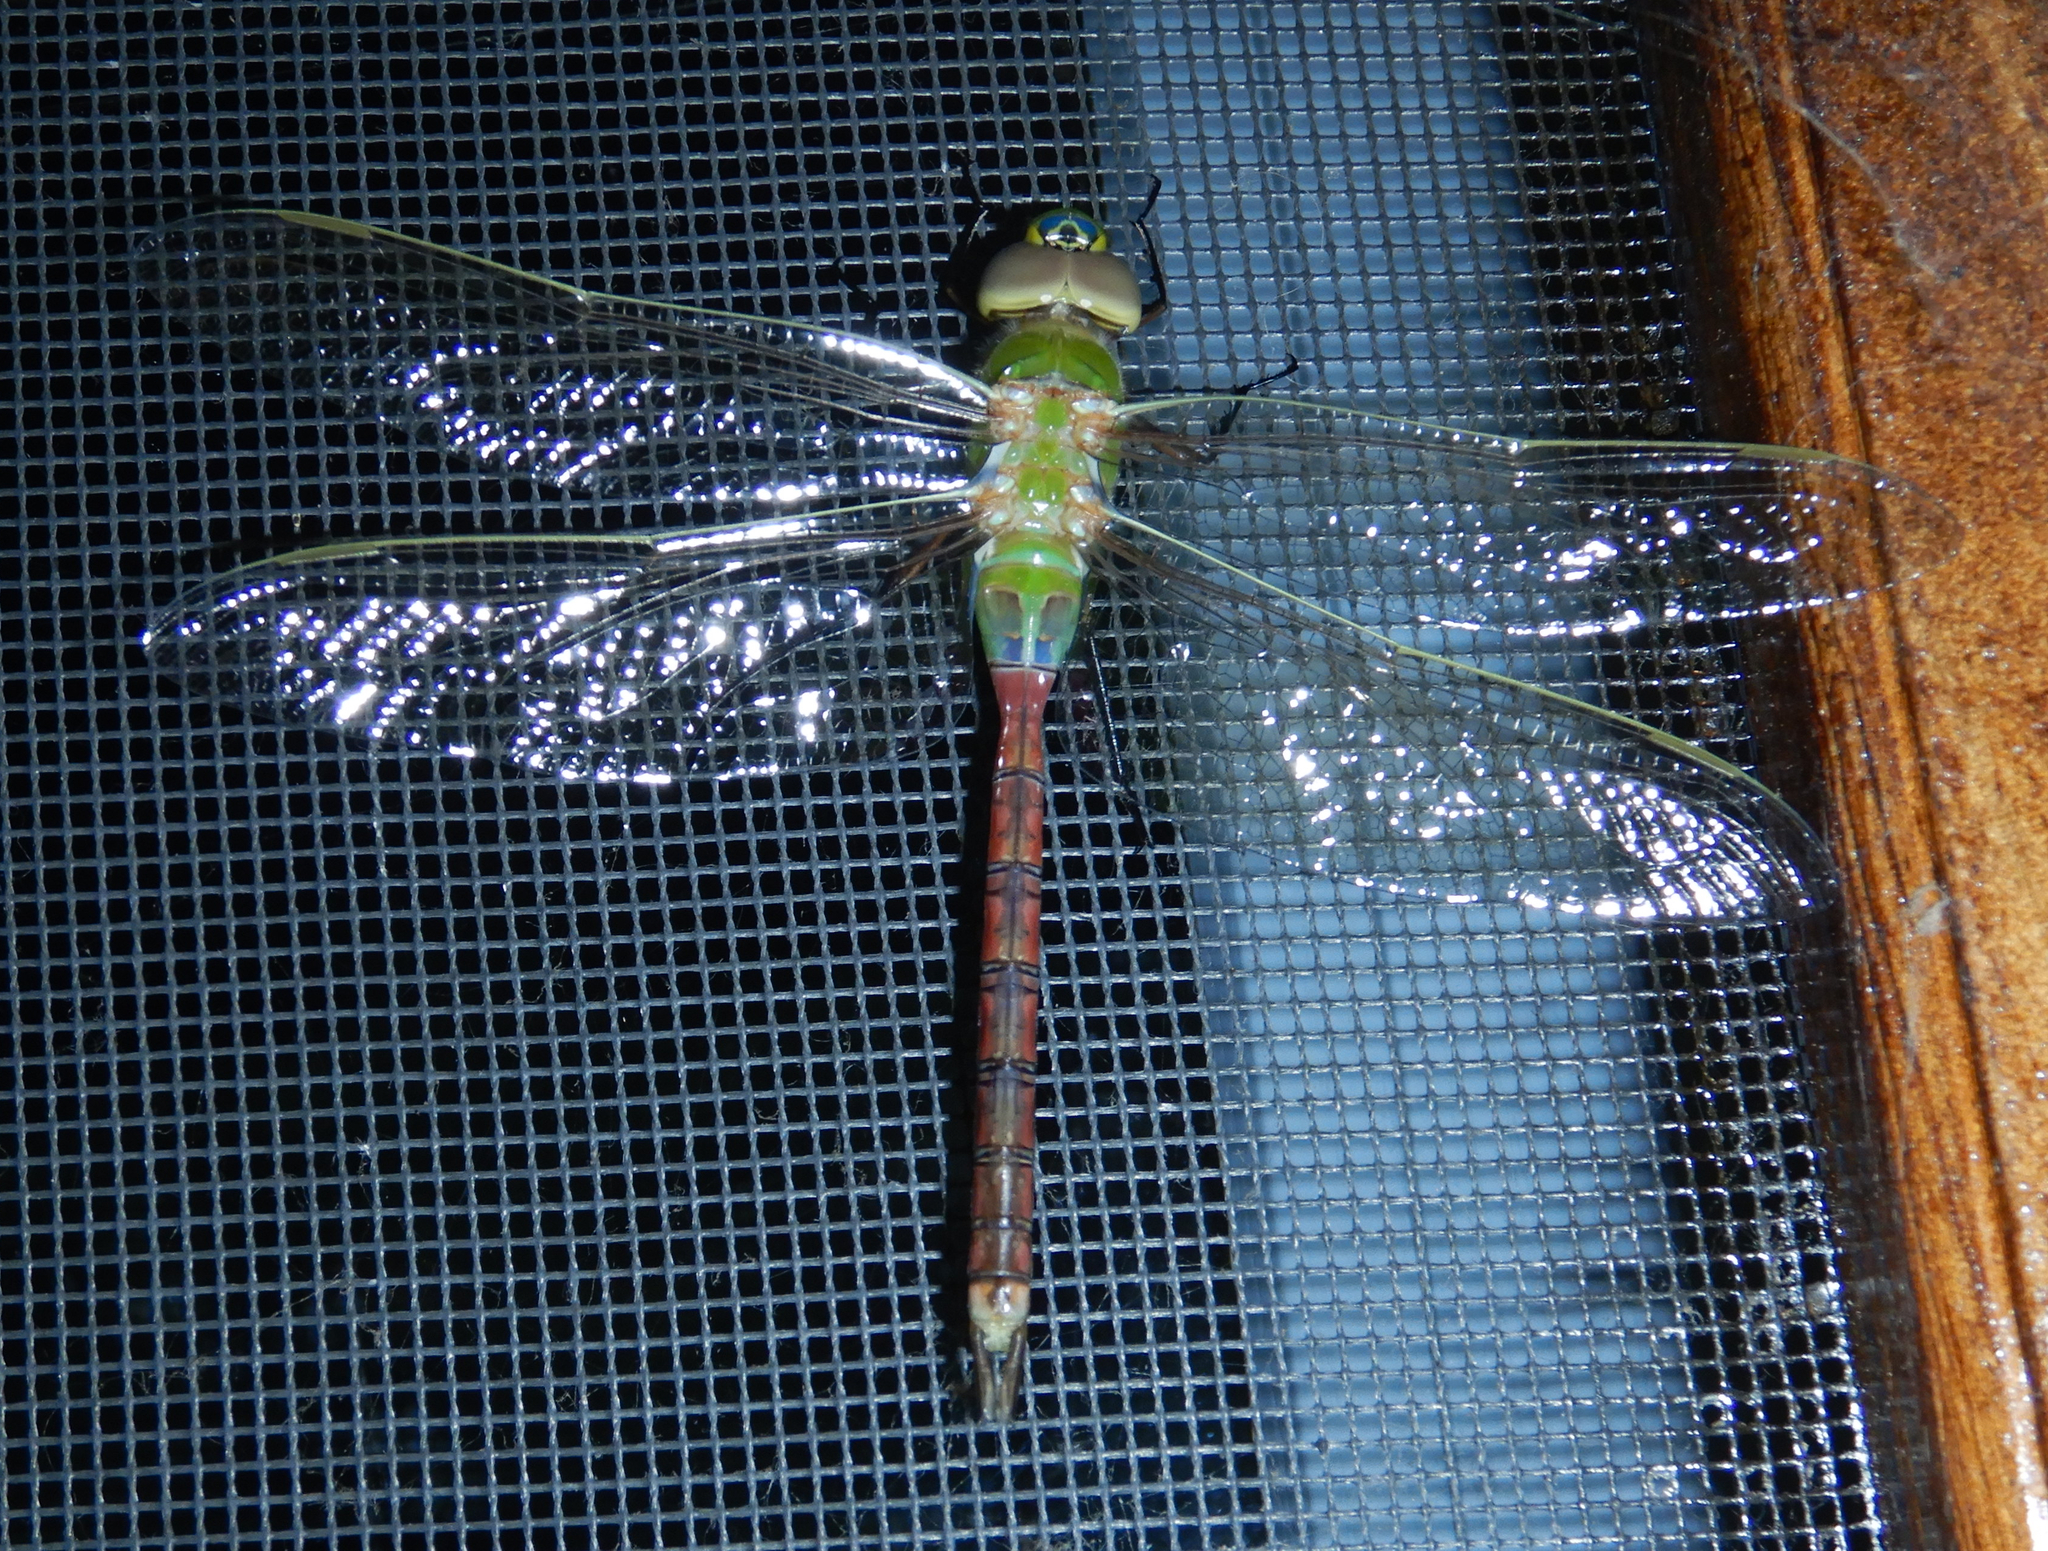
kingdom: Animalia
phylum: Arthropoda
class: Insecta
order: Odonata
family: Aeshnidae
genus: Anax
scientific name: Anax junius
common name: Common green darner
